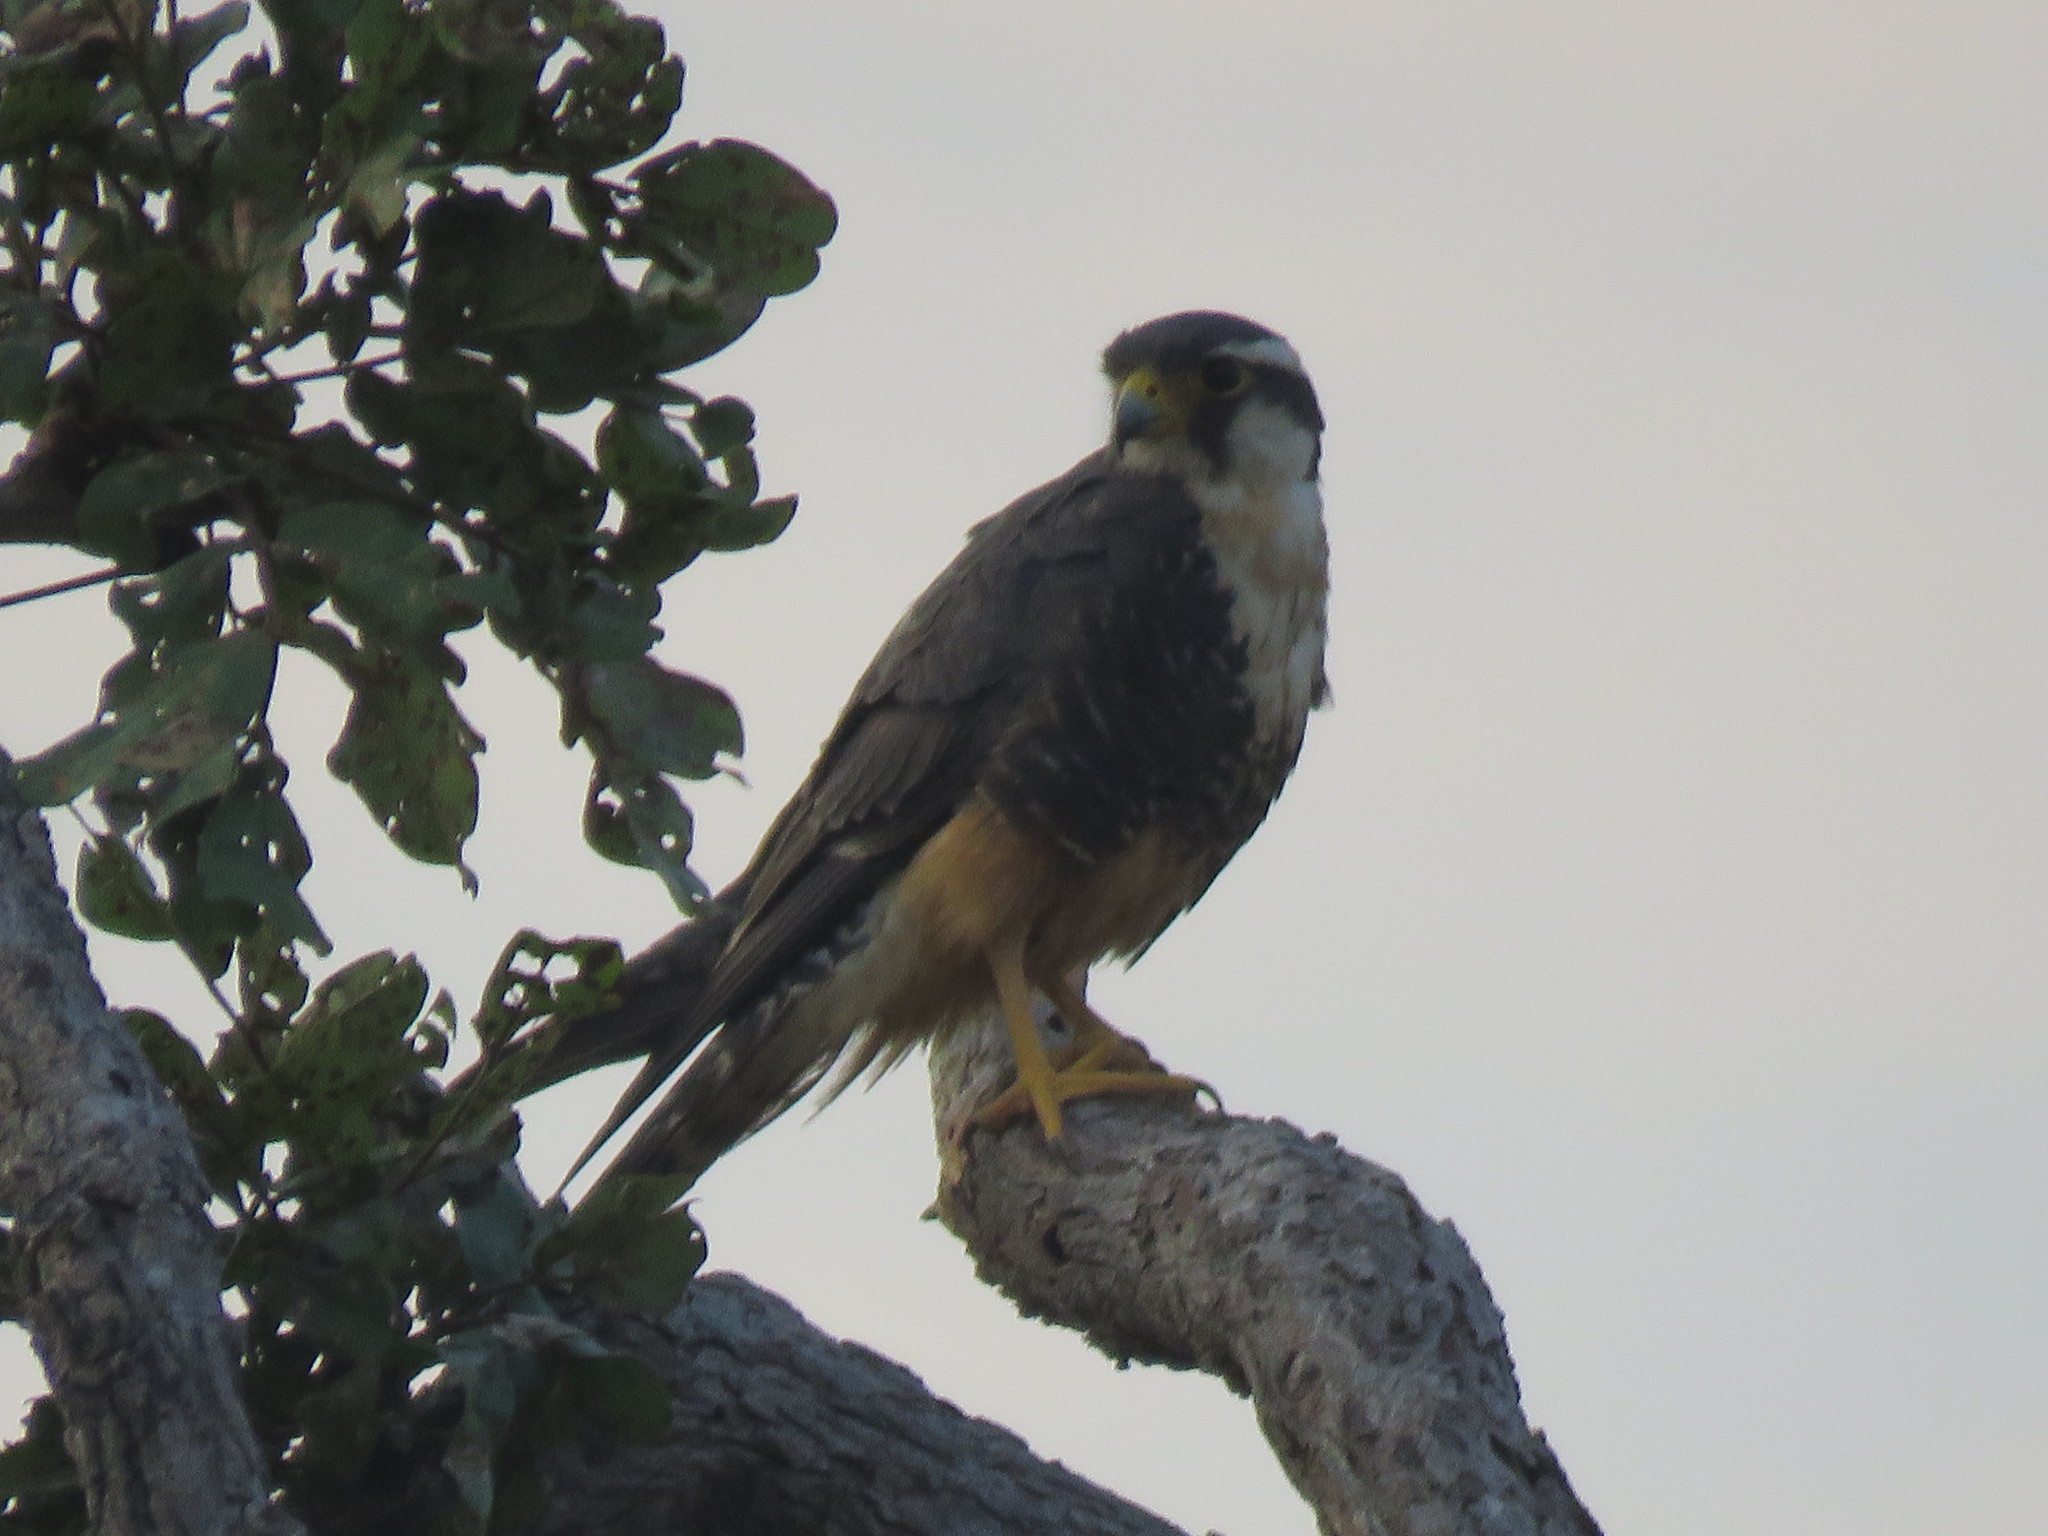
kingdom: Animalia
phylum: Chordata
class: Aves
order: Falconiformes
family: Falconidae
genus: Falco
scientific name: Falco femoralis
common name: Aplomado falcon
